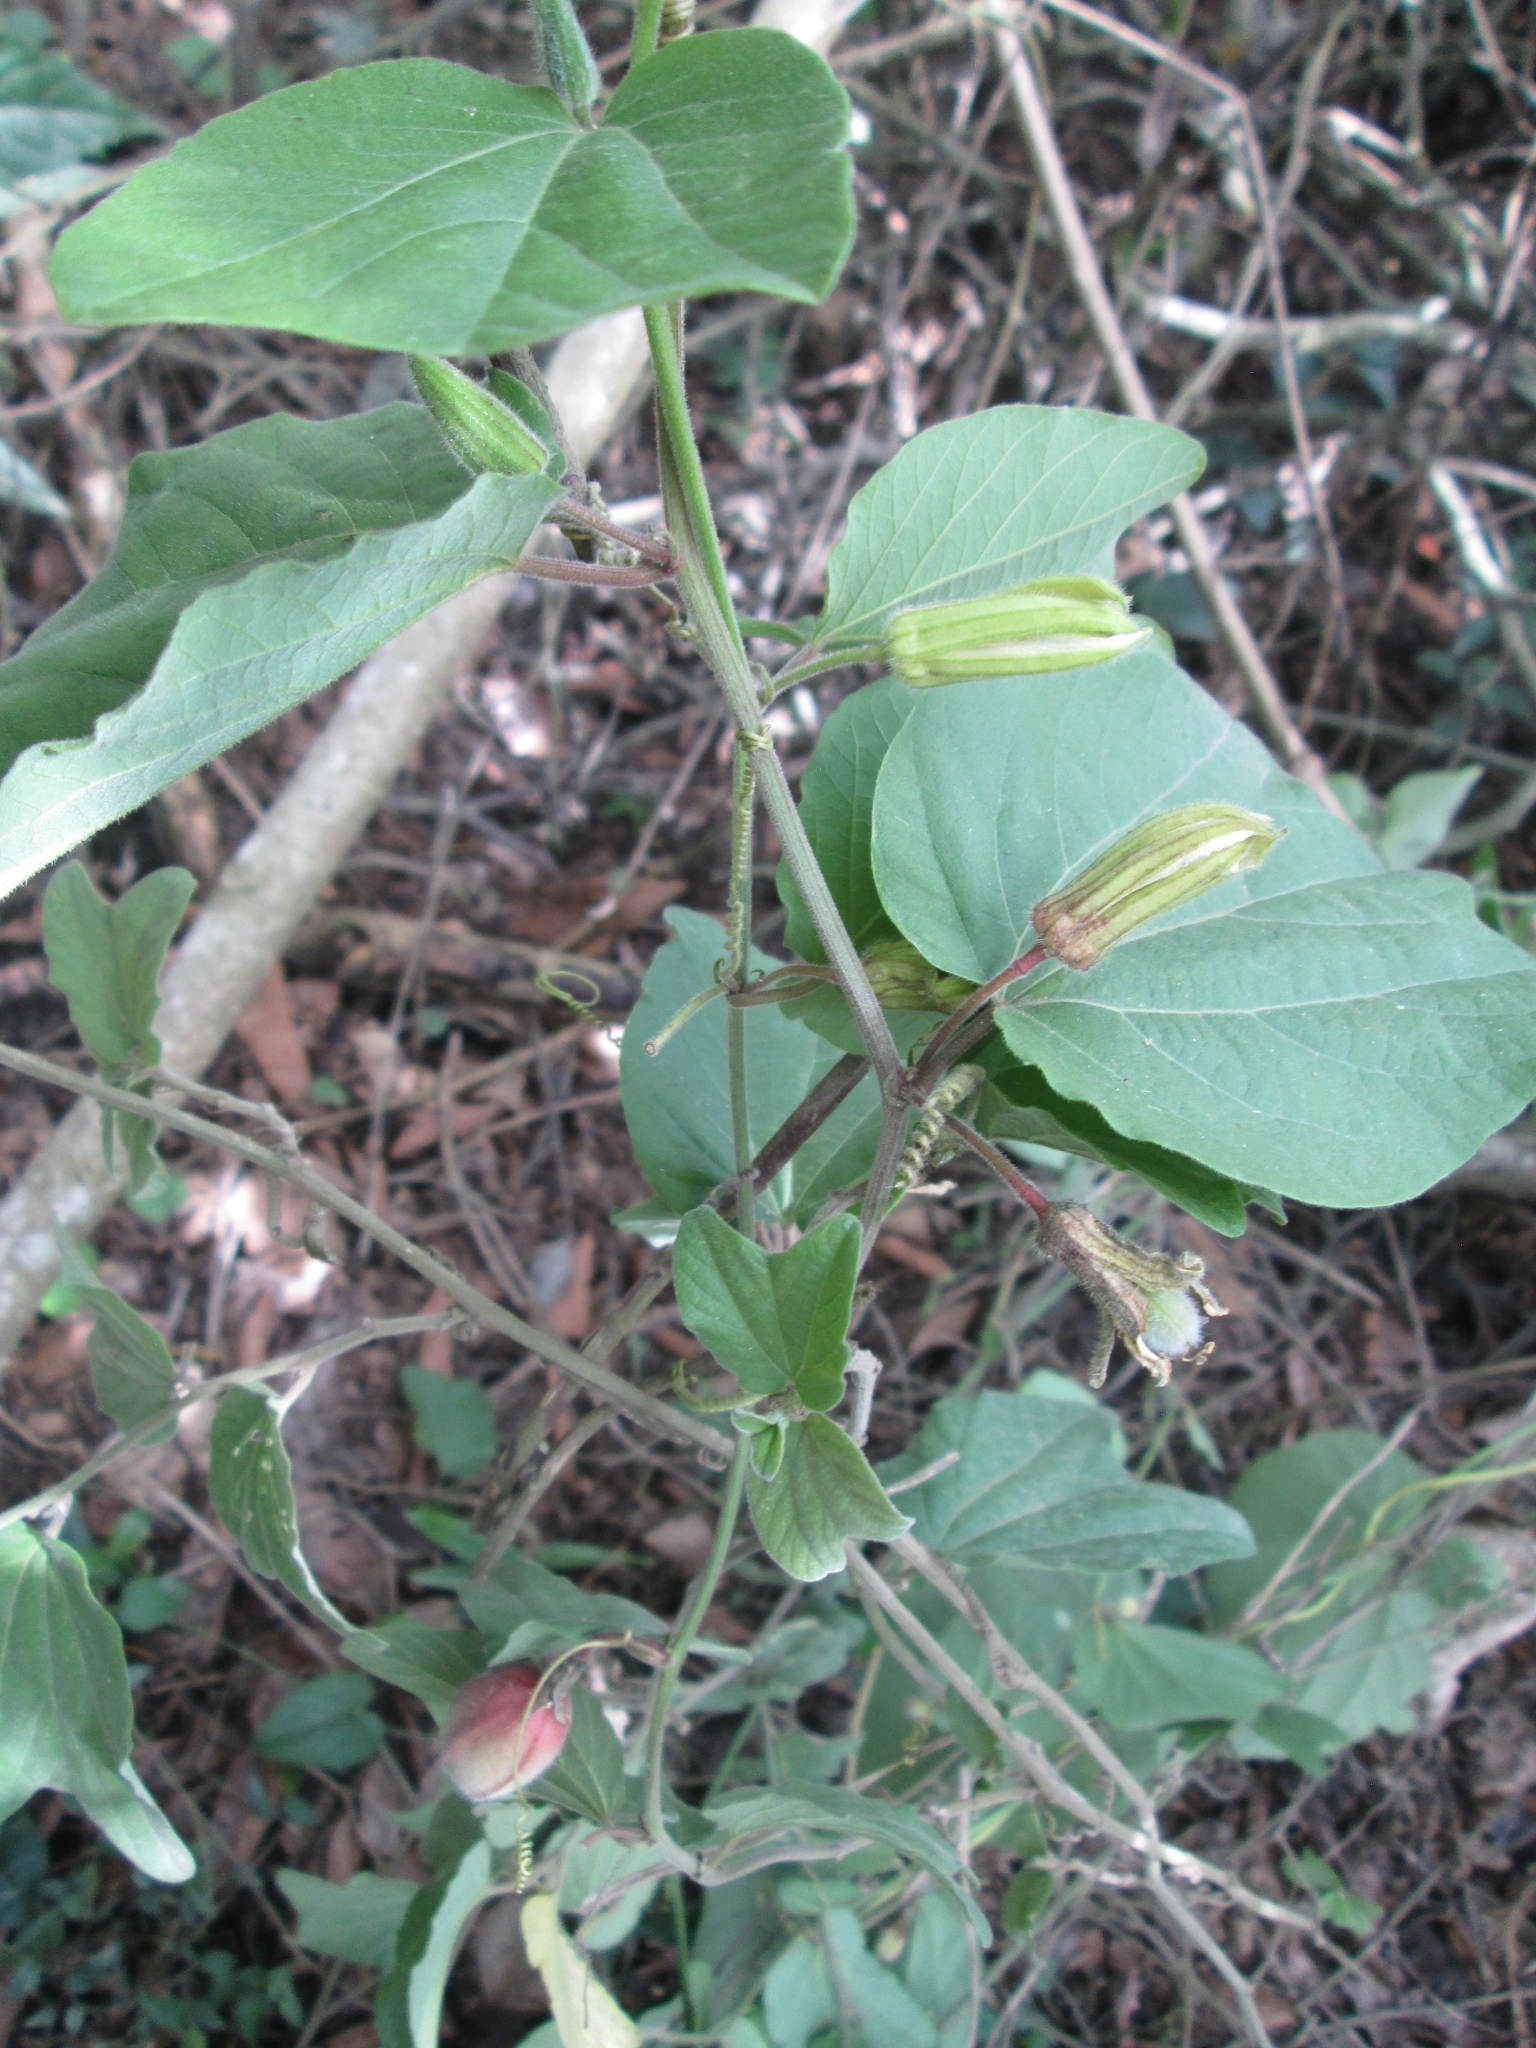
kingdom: Plantae
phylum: Tracheophyta
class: Magnoliopsida
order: Malpighiales
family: Passifloraceae
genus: Passiflora
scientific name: Passiflora cisnana
